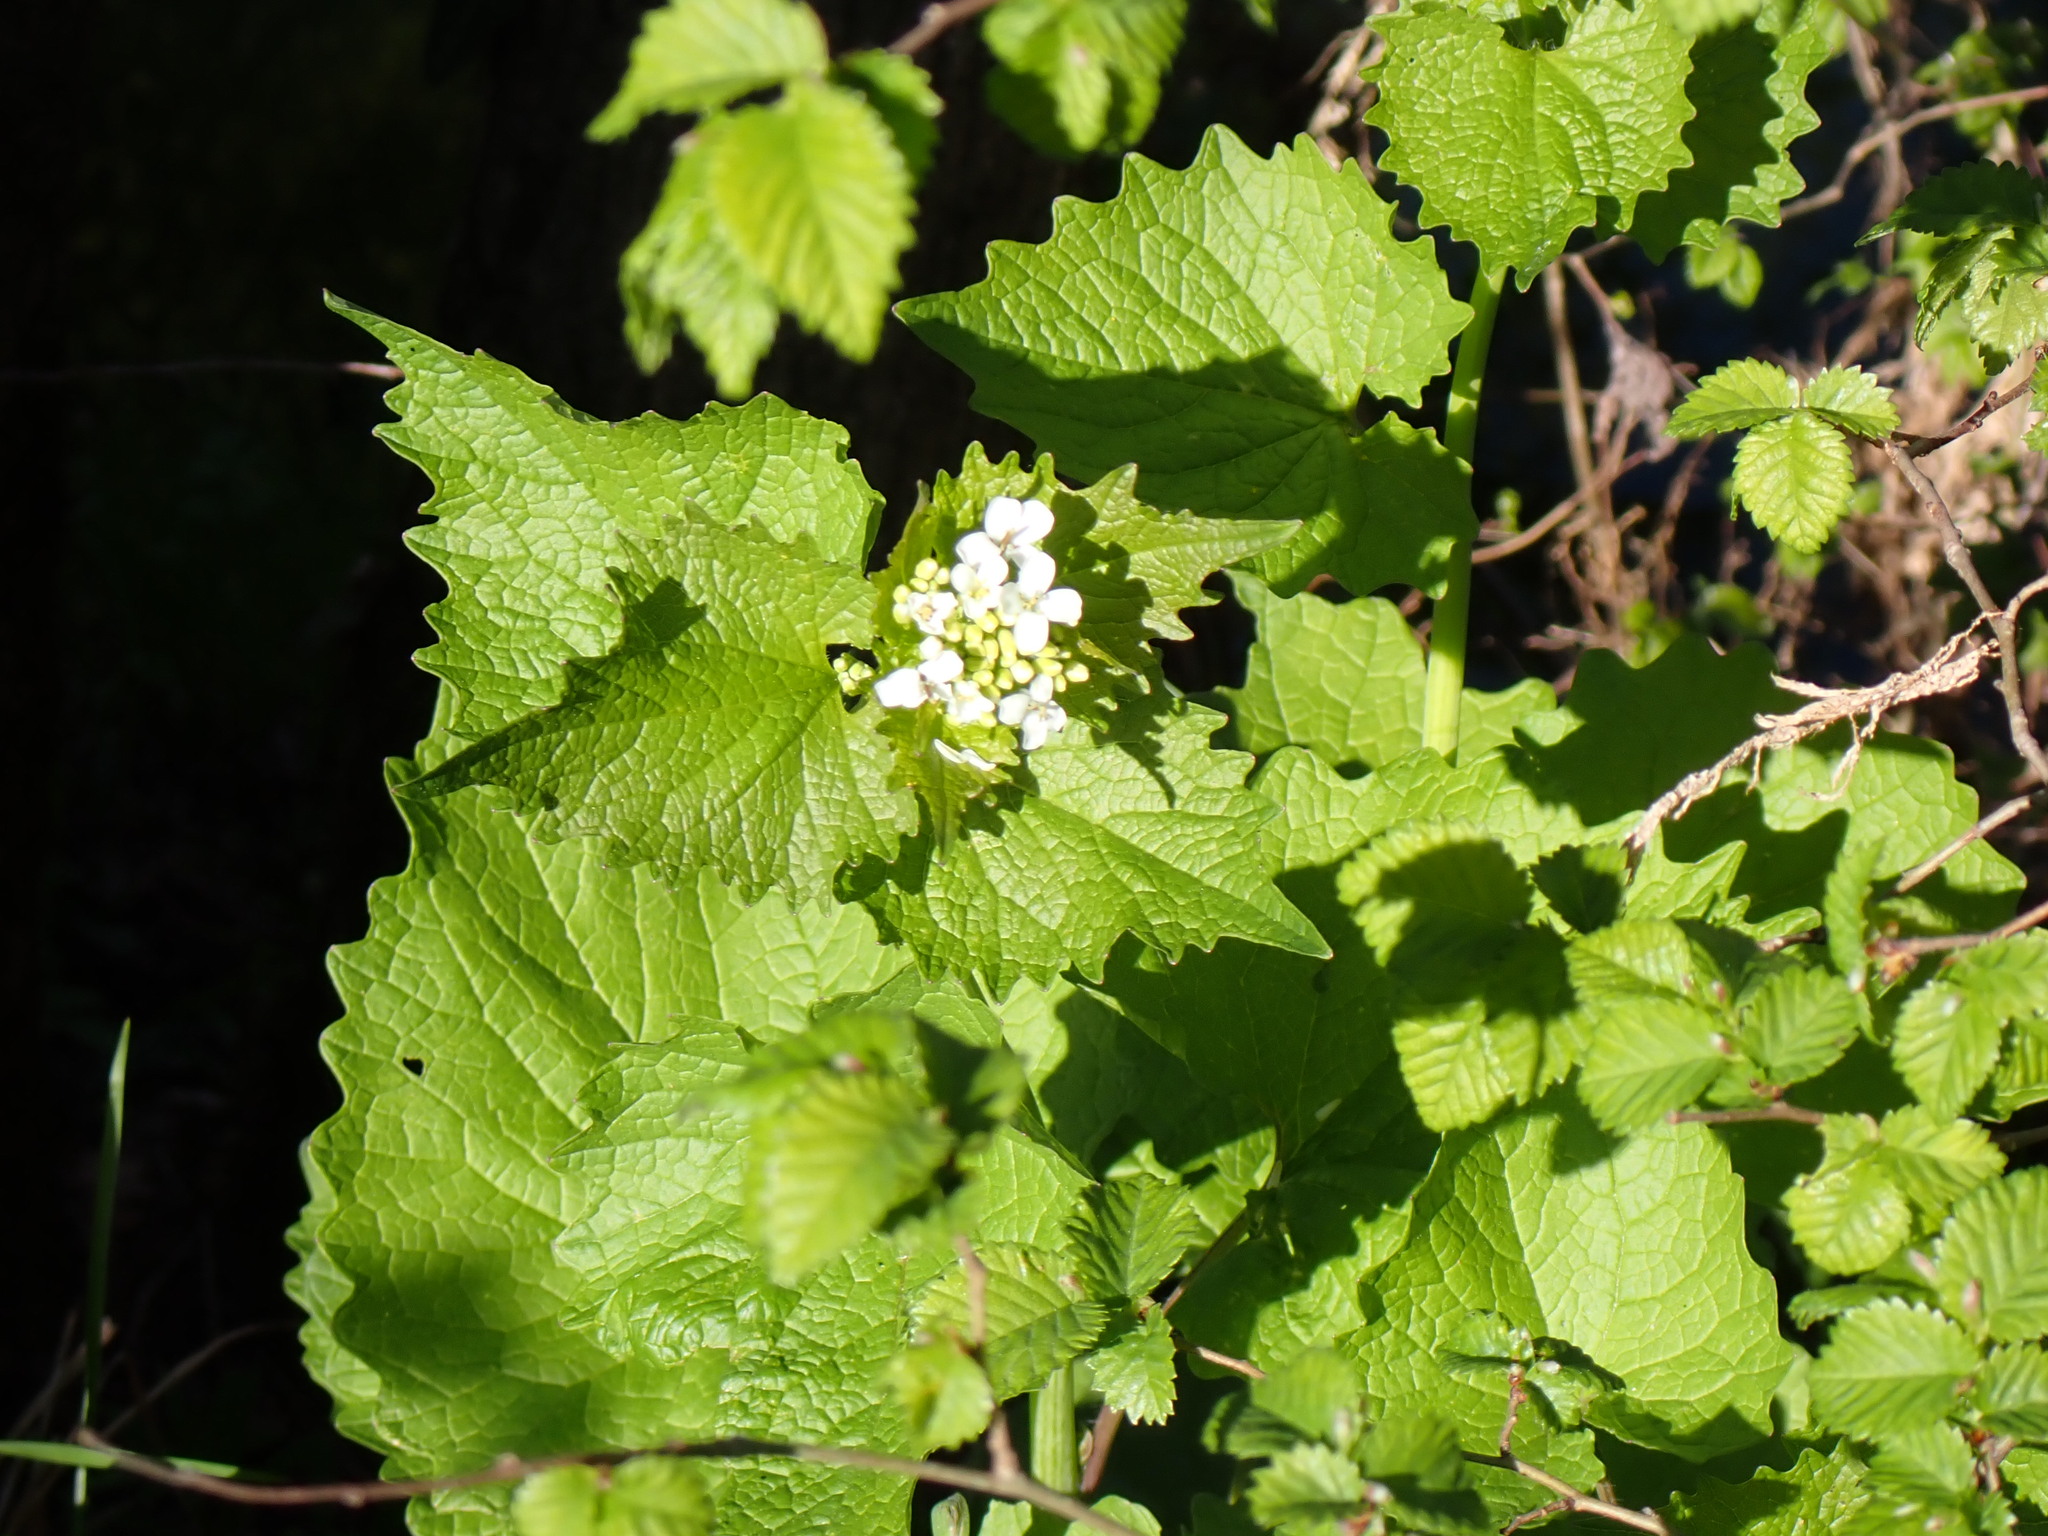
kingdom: Plantae
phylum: Tracheophyta
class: Magnoliopsida
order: Brassicales
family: Brassicaceae
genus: Alliaria
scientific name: Alliaria petiolata
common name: Garlic mustard
